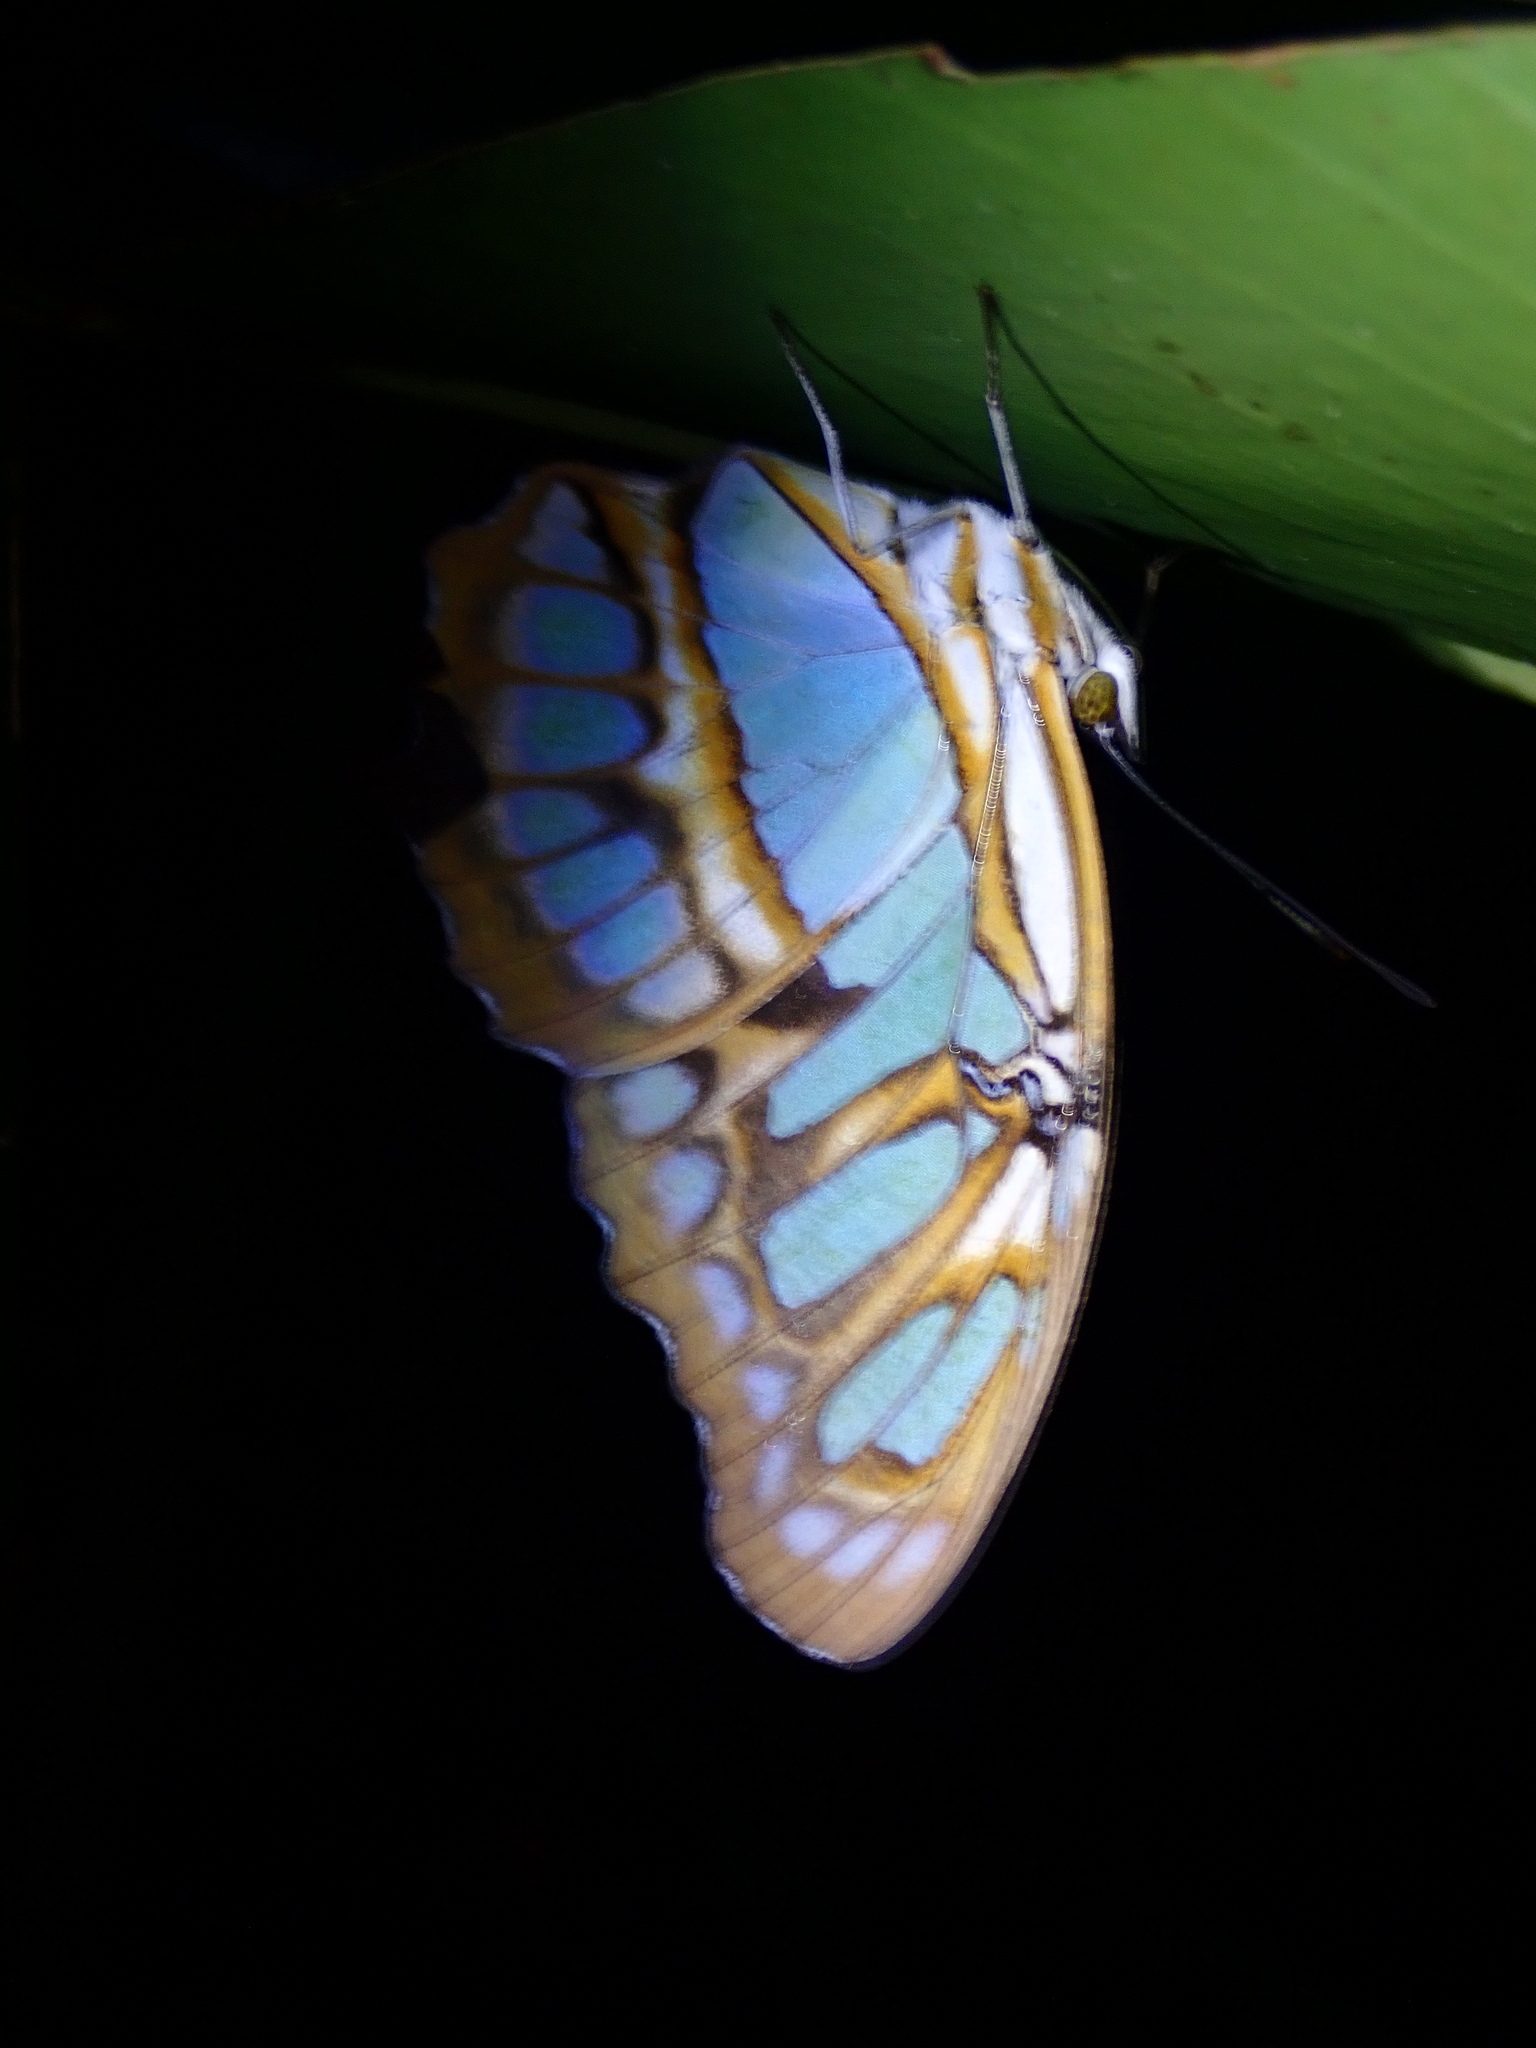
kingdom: Animalia
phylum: Arthropoda
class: Insecta
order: Lepidoptera
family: Nymphalidae
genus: Siproeta
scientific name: Siproeta stelenes
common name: Malachite
